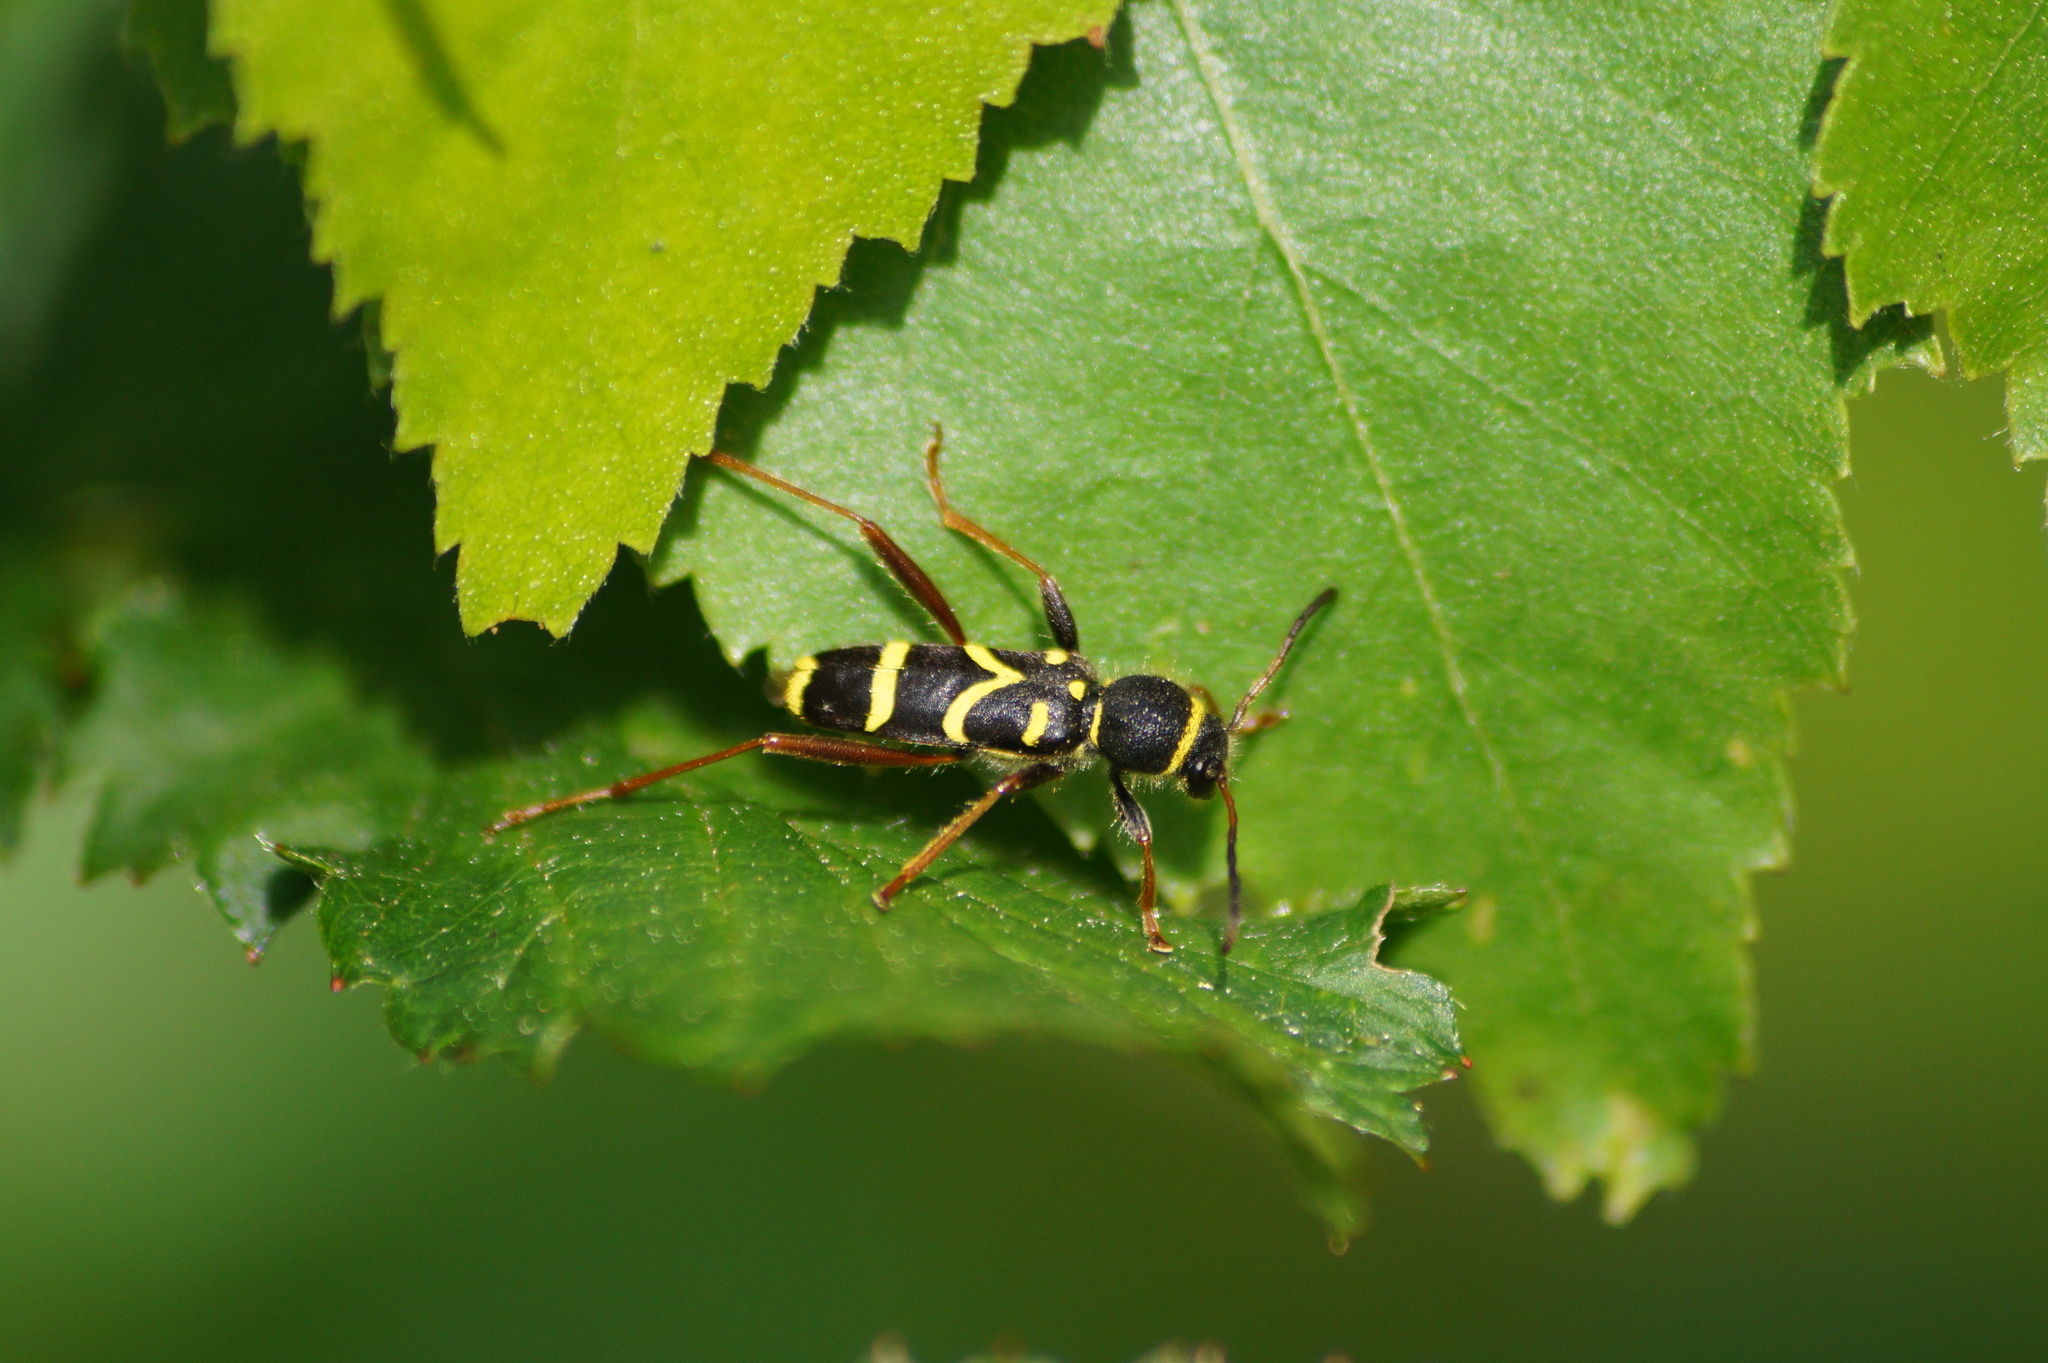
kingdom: Animalia
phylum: Arthropoda
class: Insecta
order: Coleoptera
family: Cerambycidae
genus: Clytus
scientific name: Clytus arietis
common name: Wasp beetle
